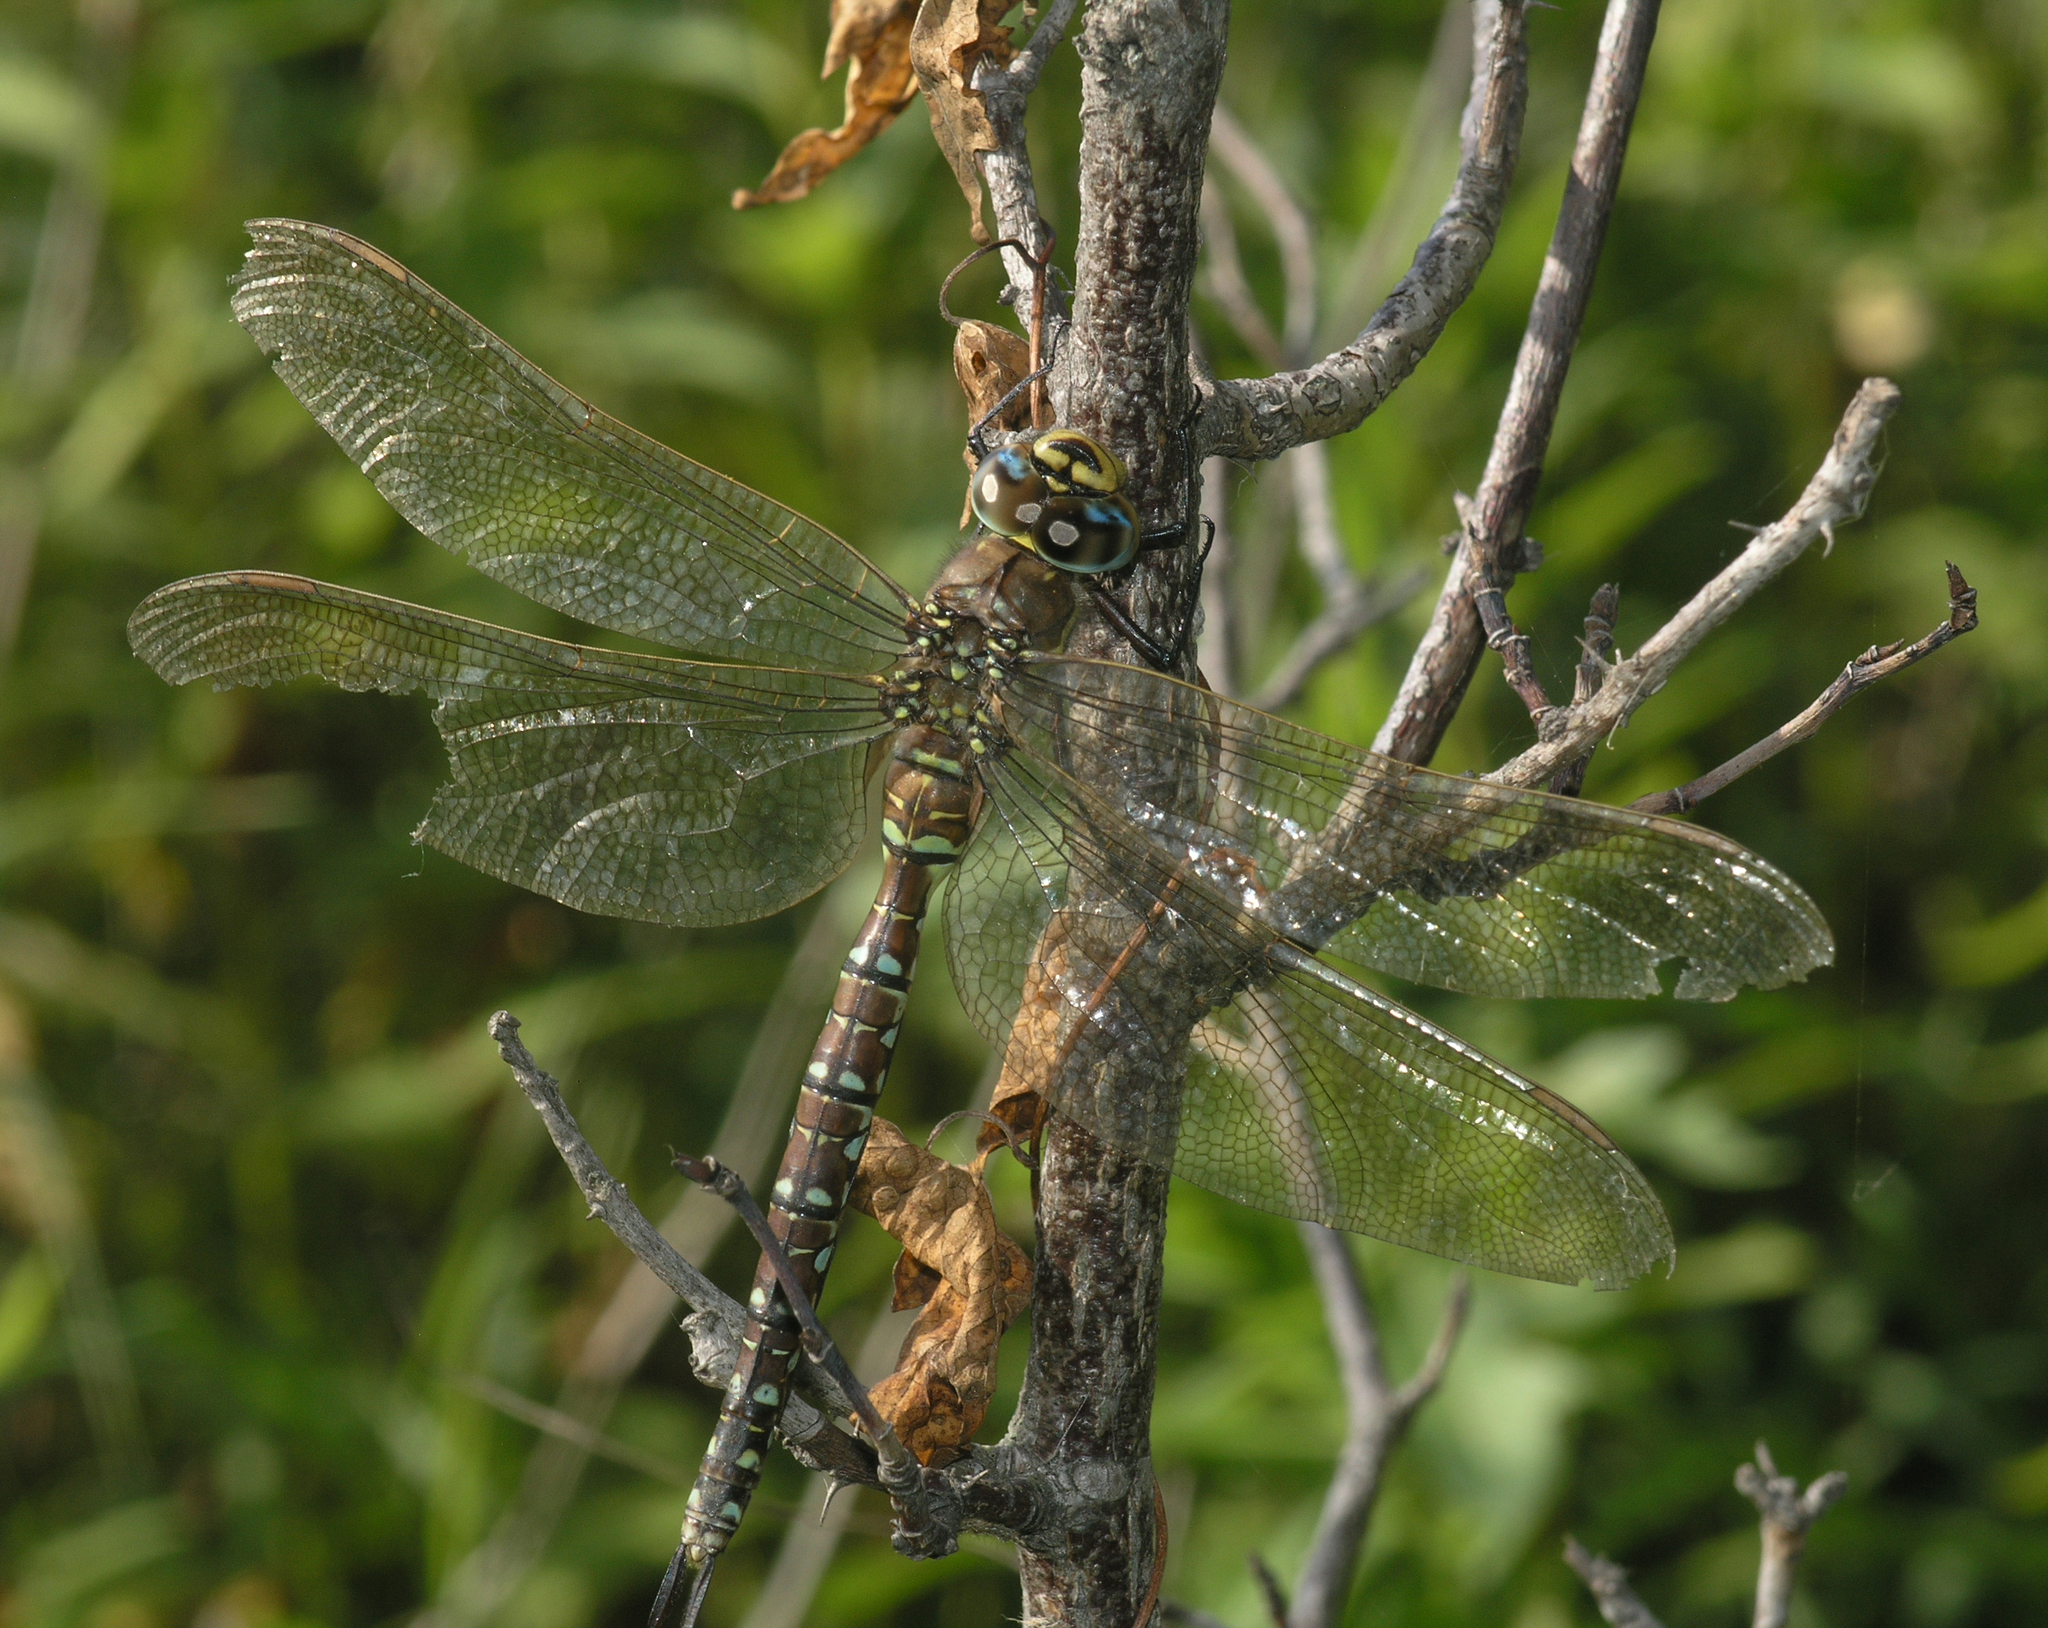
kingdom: Animalia
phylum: Arthropoda
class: Insecta
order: Odonata
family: Aeshnidae
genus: Aeshna
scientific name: Aeshna juncea
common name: Moorland hawker
